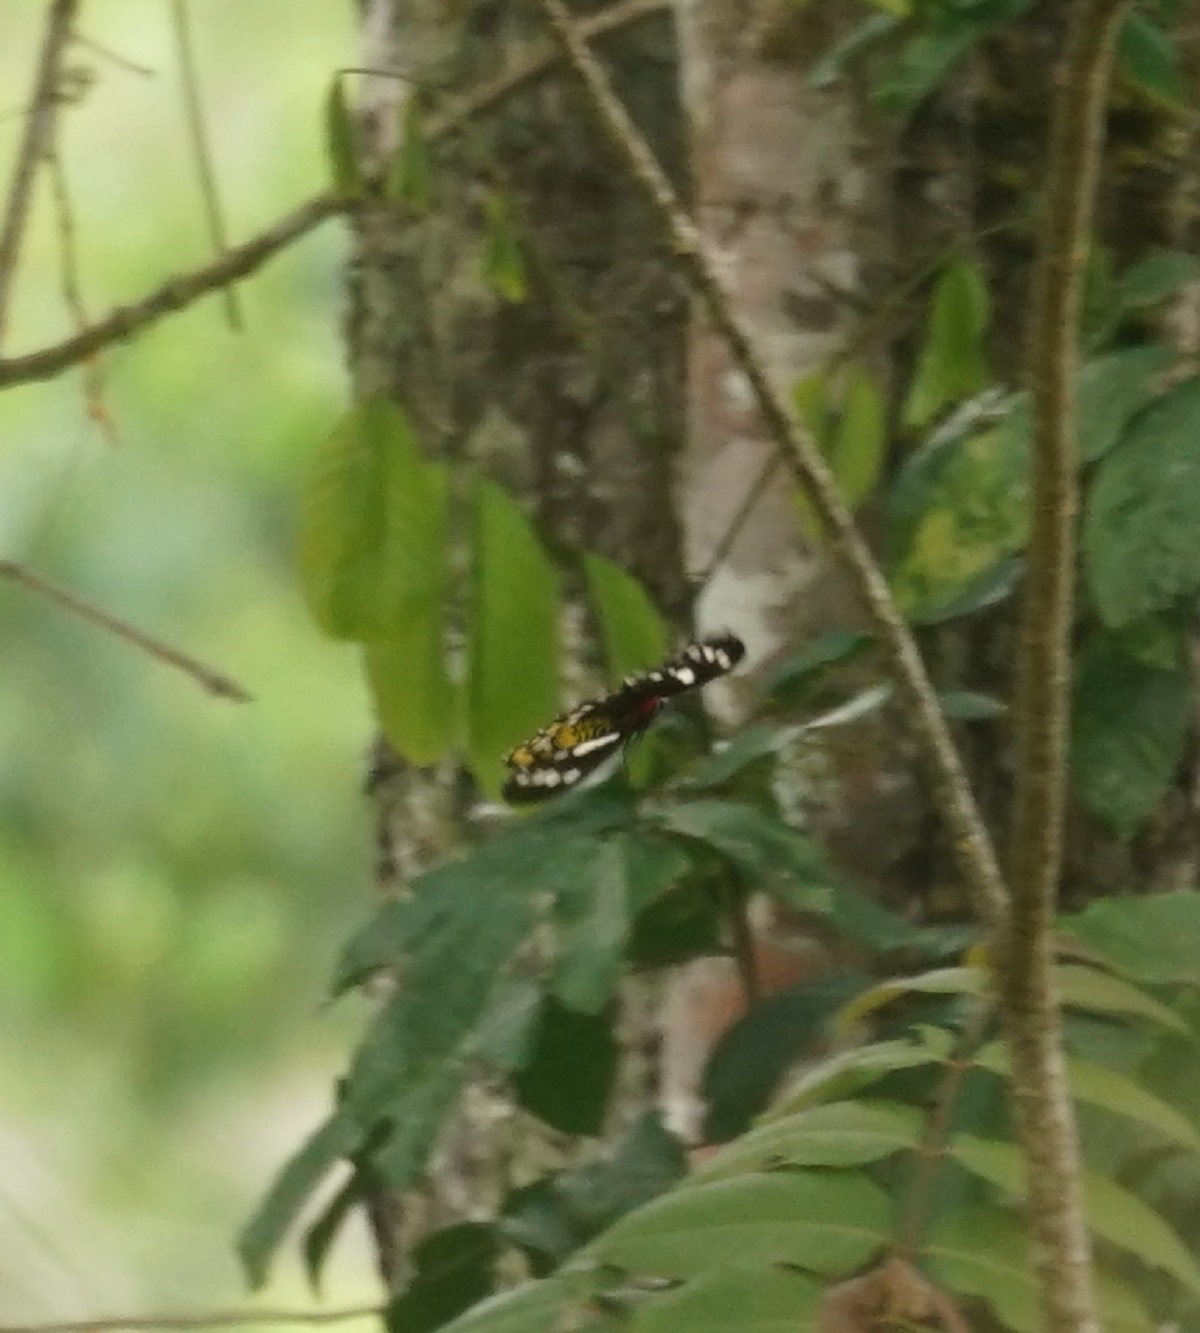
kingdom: Animalia
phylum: Arthropoda
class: Insecta
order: Lepidoptera
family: Papilionidae
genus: Ornithoptera
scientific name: Ornithoptera euphorion
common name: Cairns birdwing
